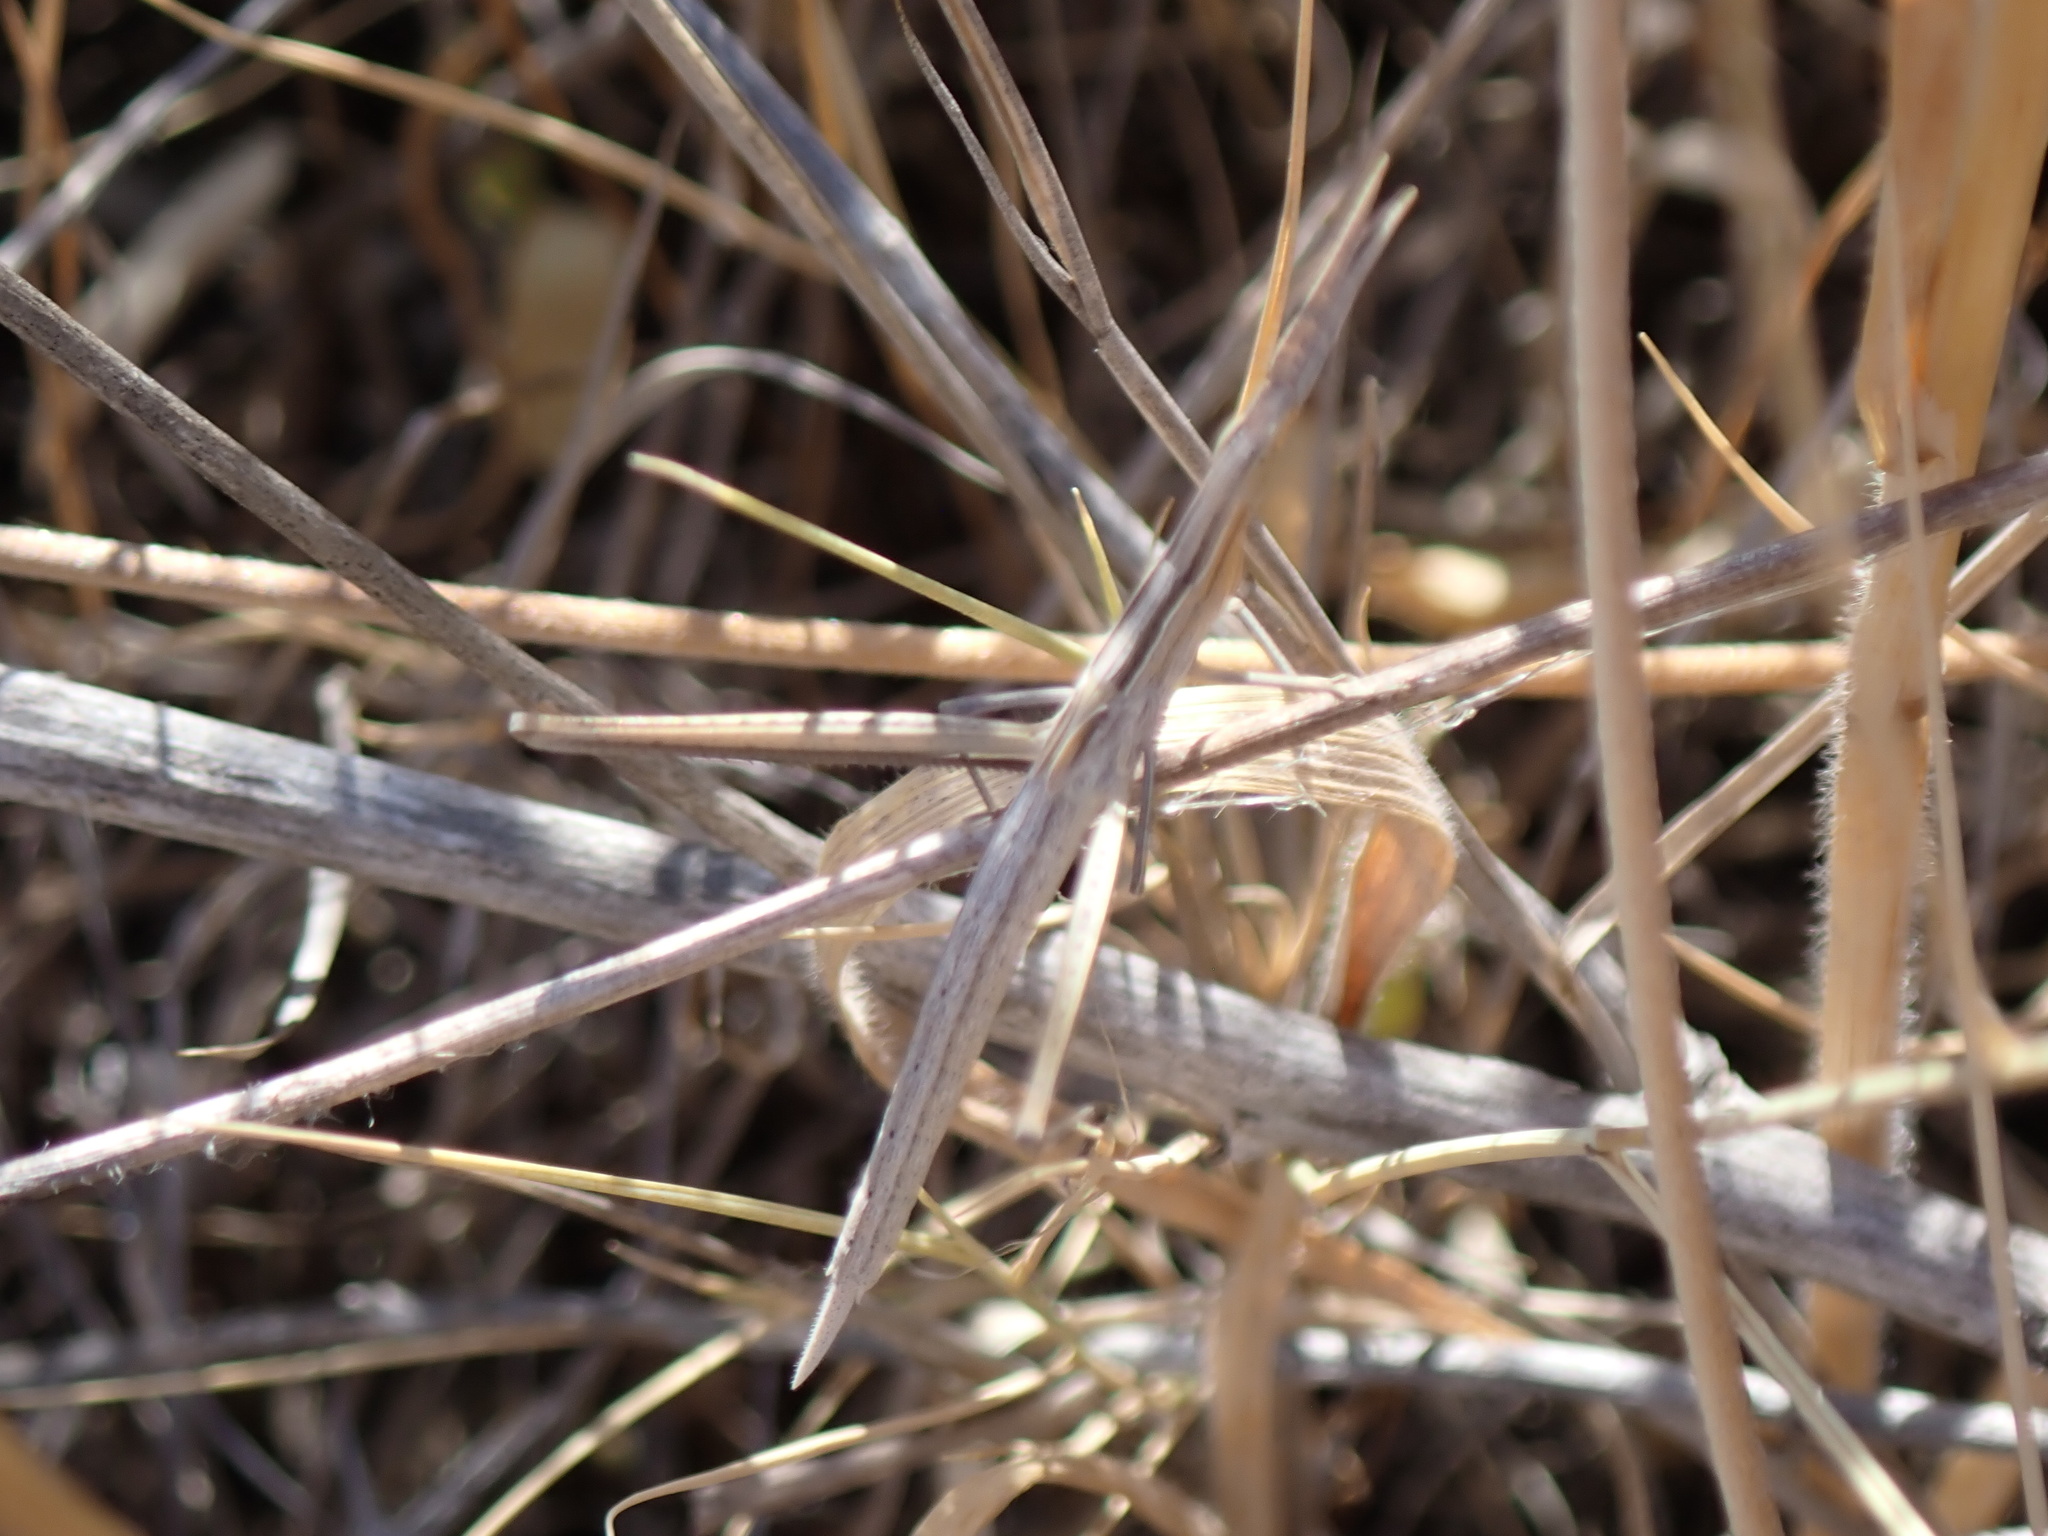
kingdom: Animalia
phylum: Arthropoda
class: Insecta
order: Orthoptera
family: Acrididae
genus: Acrida
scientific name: Acrida ungarica
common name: Common cone-headed grasshopper
